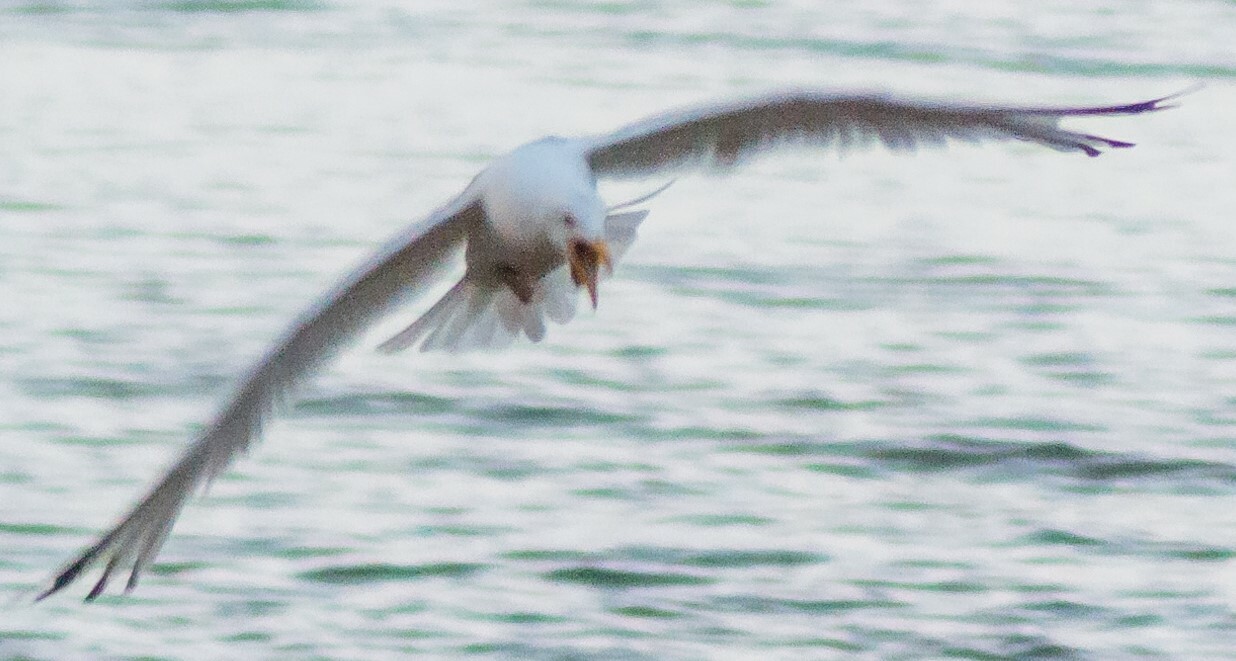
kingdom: Animalia
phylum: Chordata
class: Aves
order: Charadriiformes
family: Laridae
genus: Larus
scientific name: Larus argentatus
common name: Herring gull
